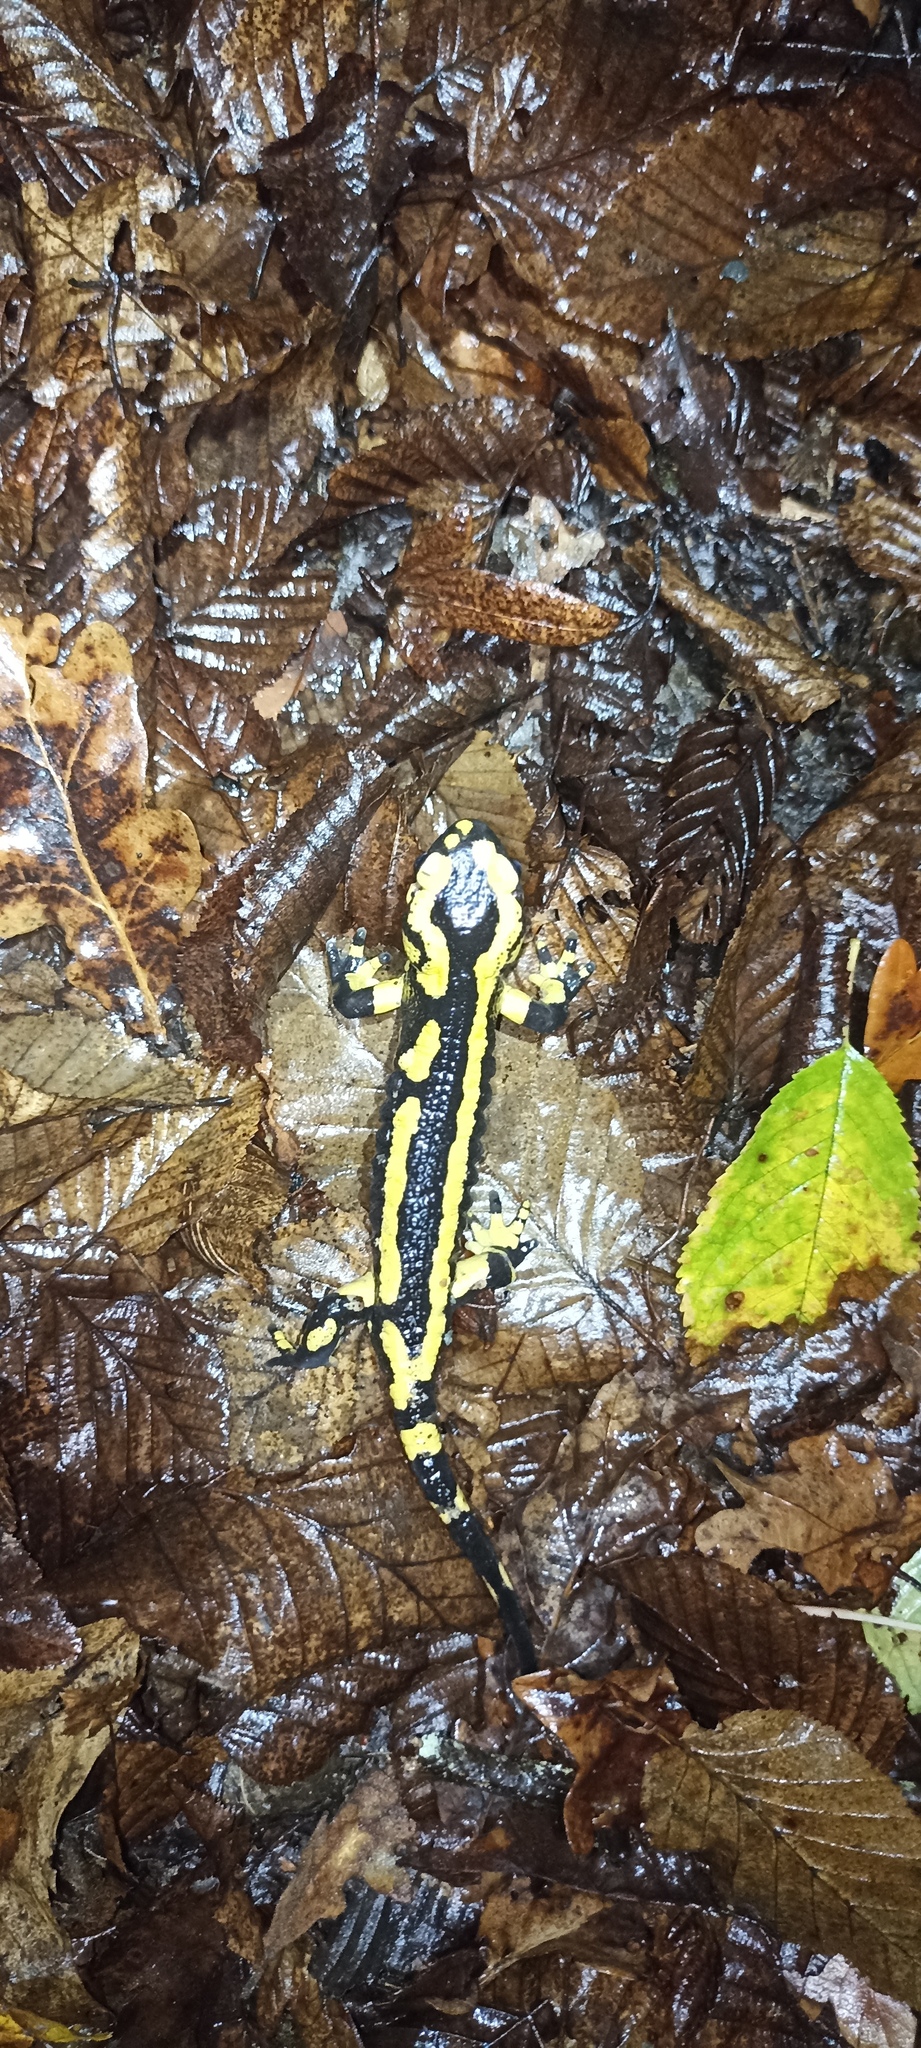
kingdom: Animalia
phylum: Chordata
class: Amphibia
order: Caudata
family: Salamandridae
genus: Salamandra
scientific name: Salamandra salamandra
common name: Fire salamander
